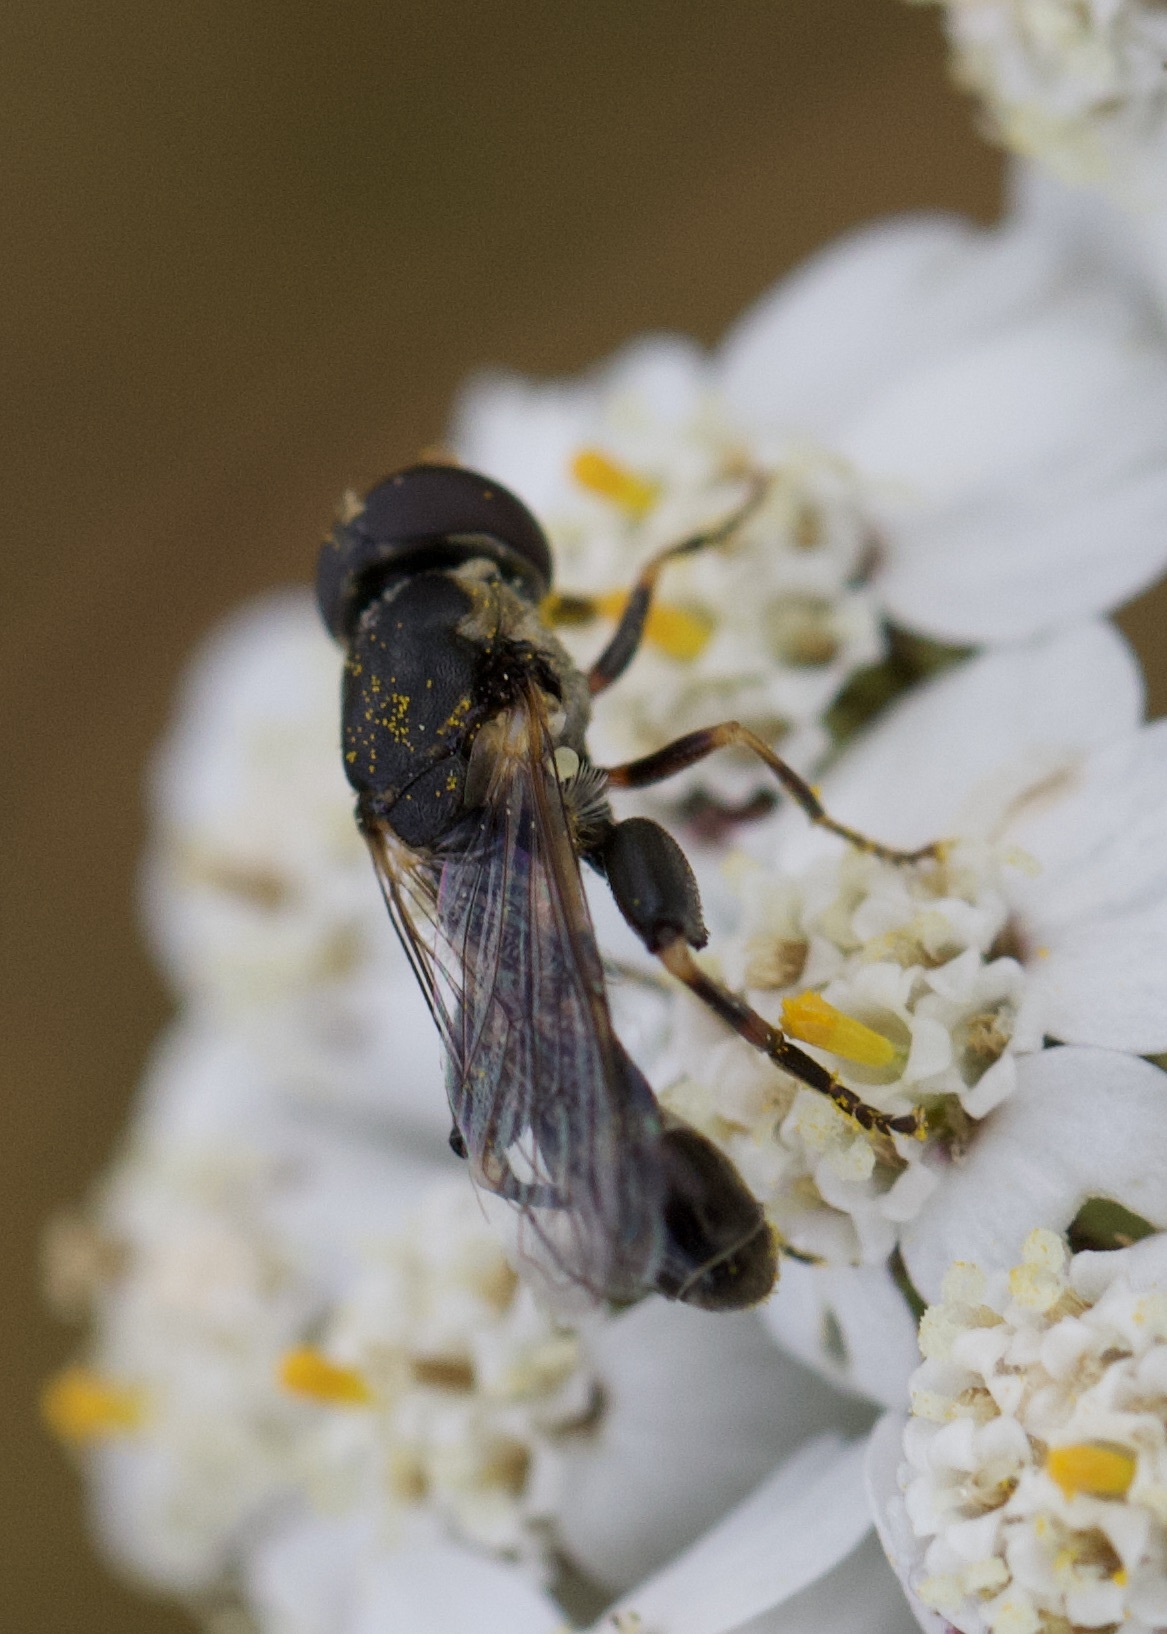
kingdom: Animalia
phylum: Arthropoda
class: Insecta
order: Diptera
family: Syrphidae
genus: Syritta
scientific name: Syritta pipiens
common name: Hover fly
